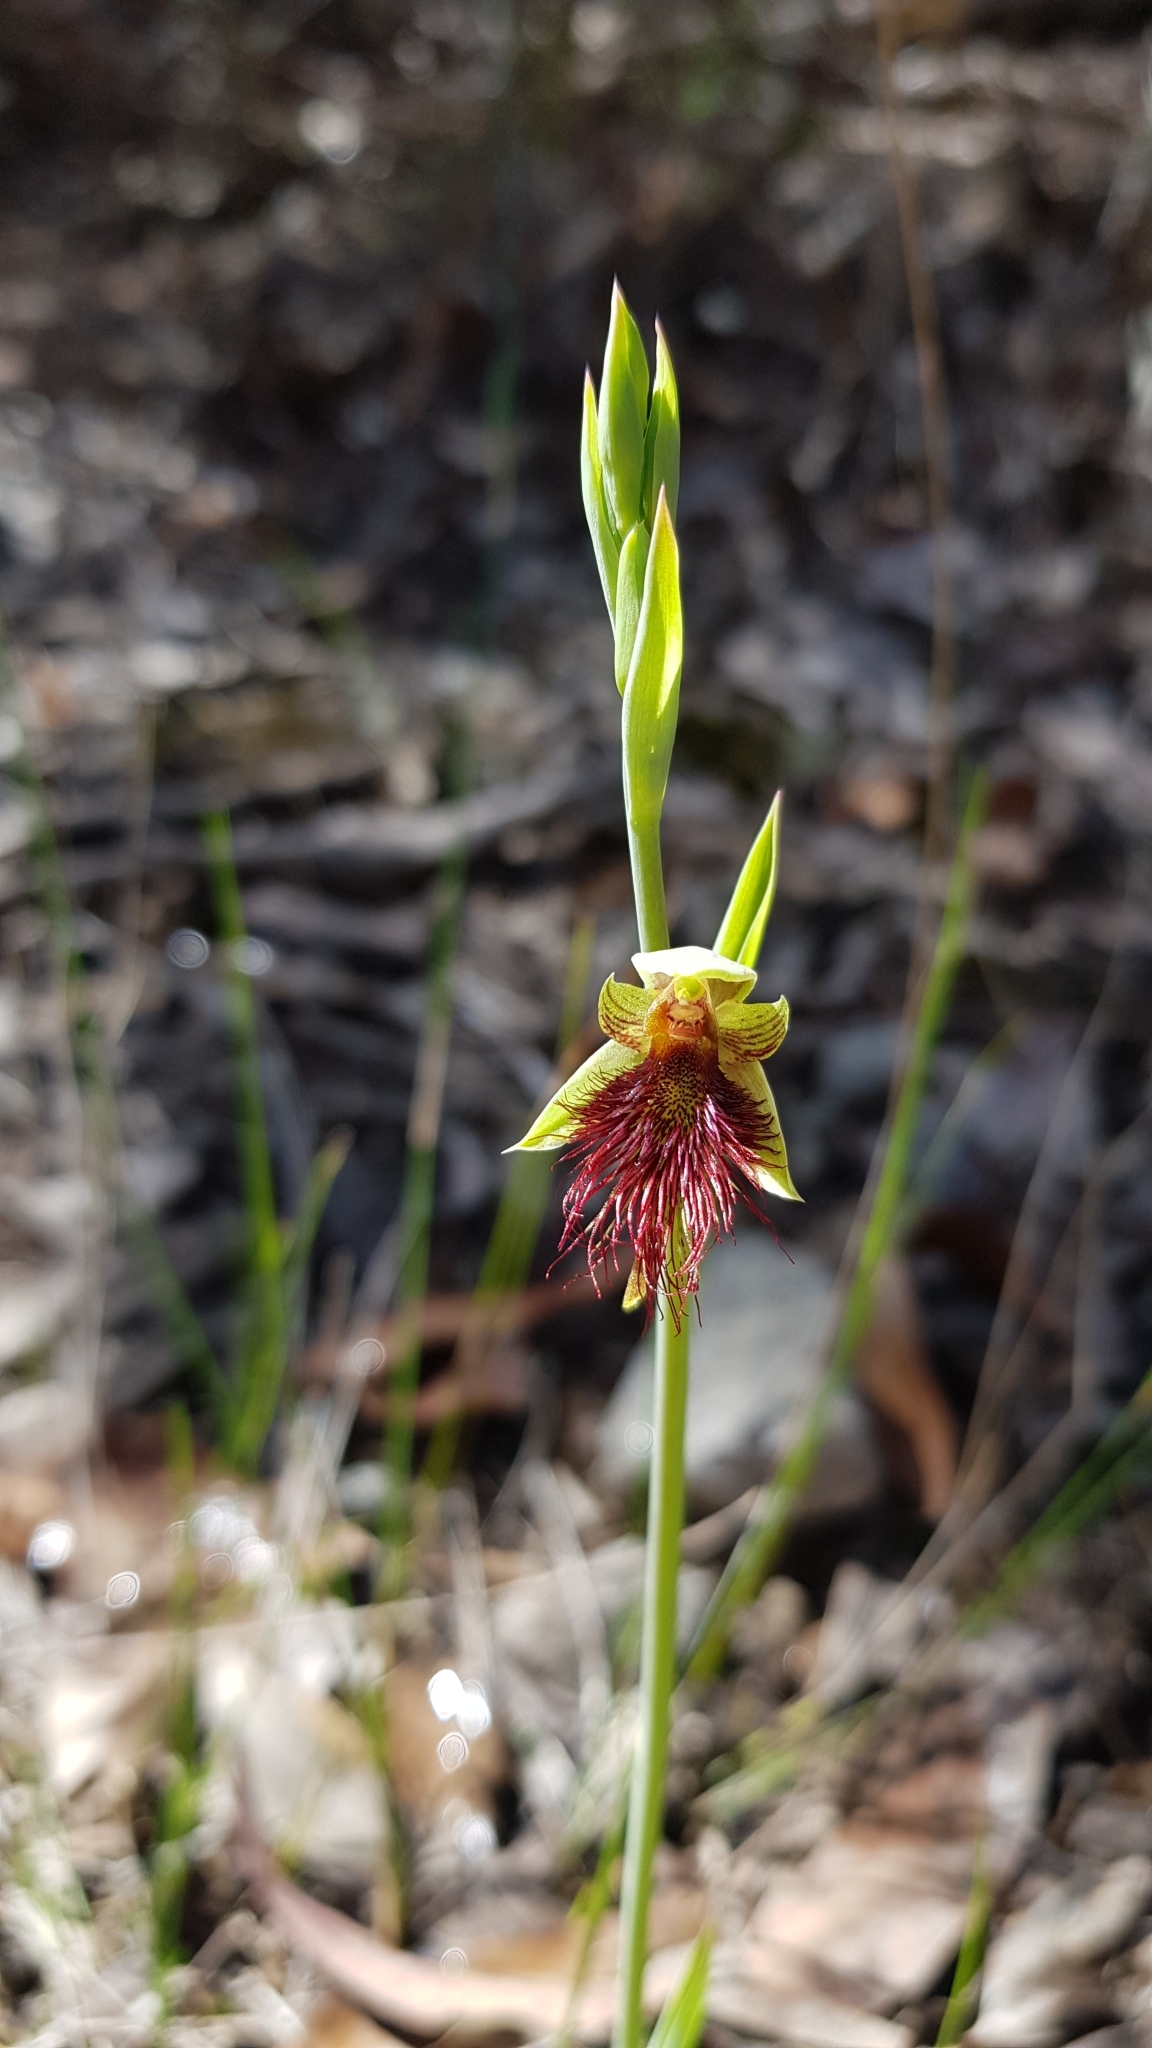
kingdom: Plantae
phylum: Tracheophyta
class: Liliopsida
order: Asparagales
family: Orchidaceae
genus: Calochilus
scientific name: Calochilus paludosus
